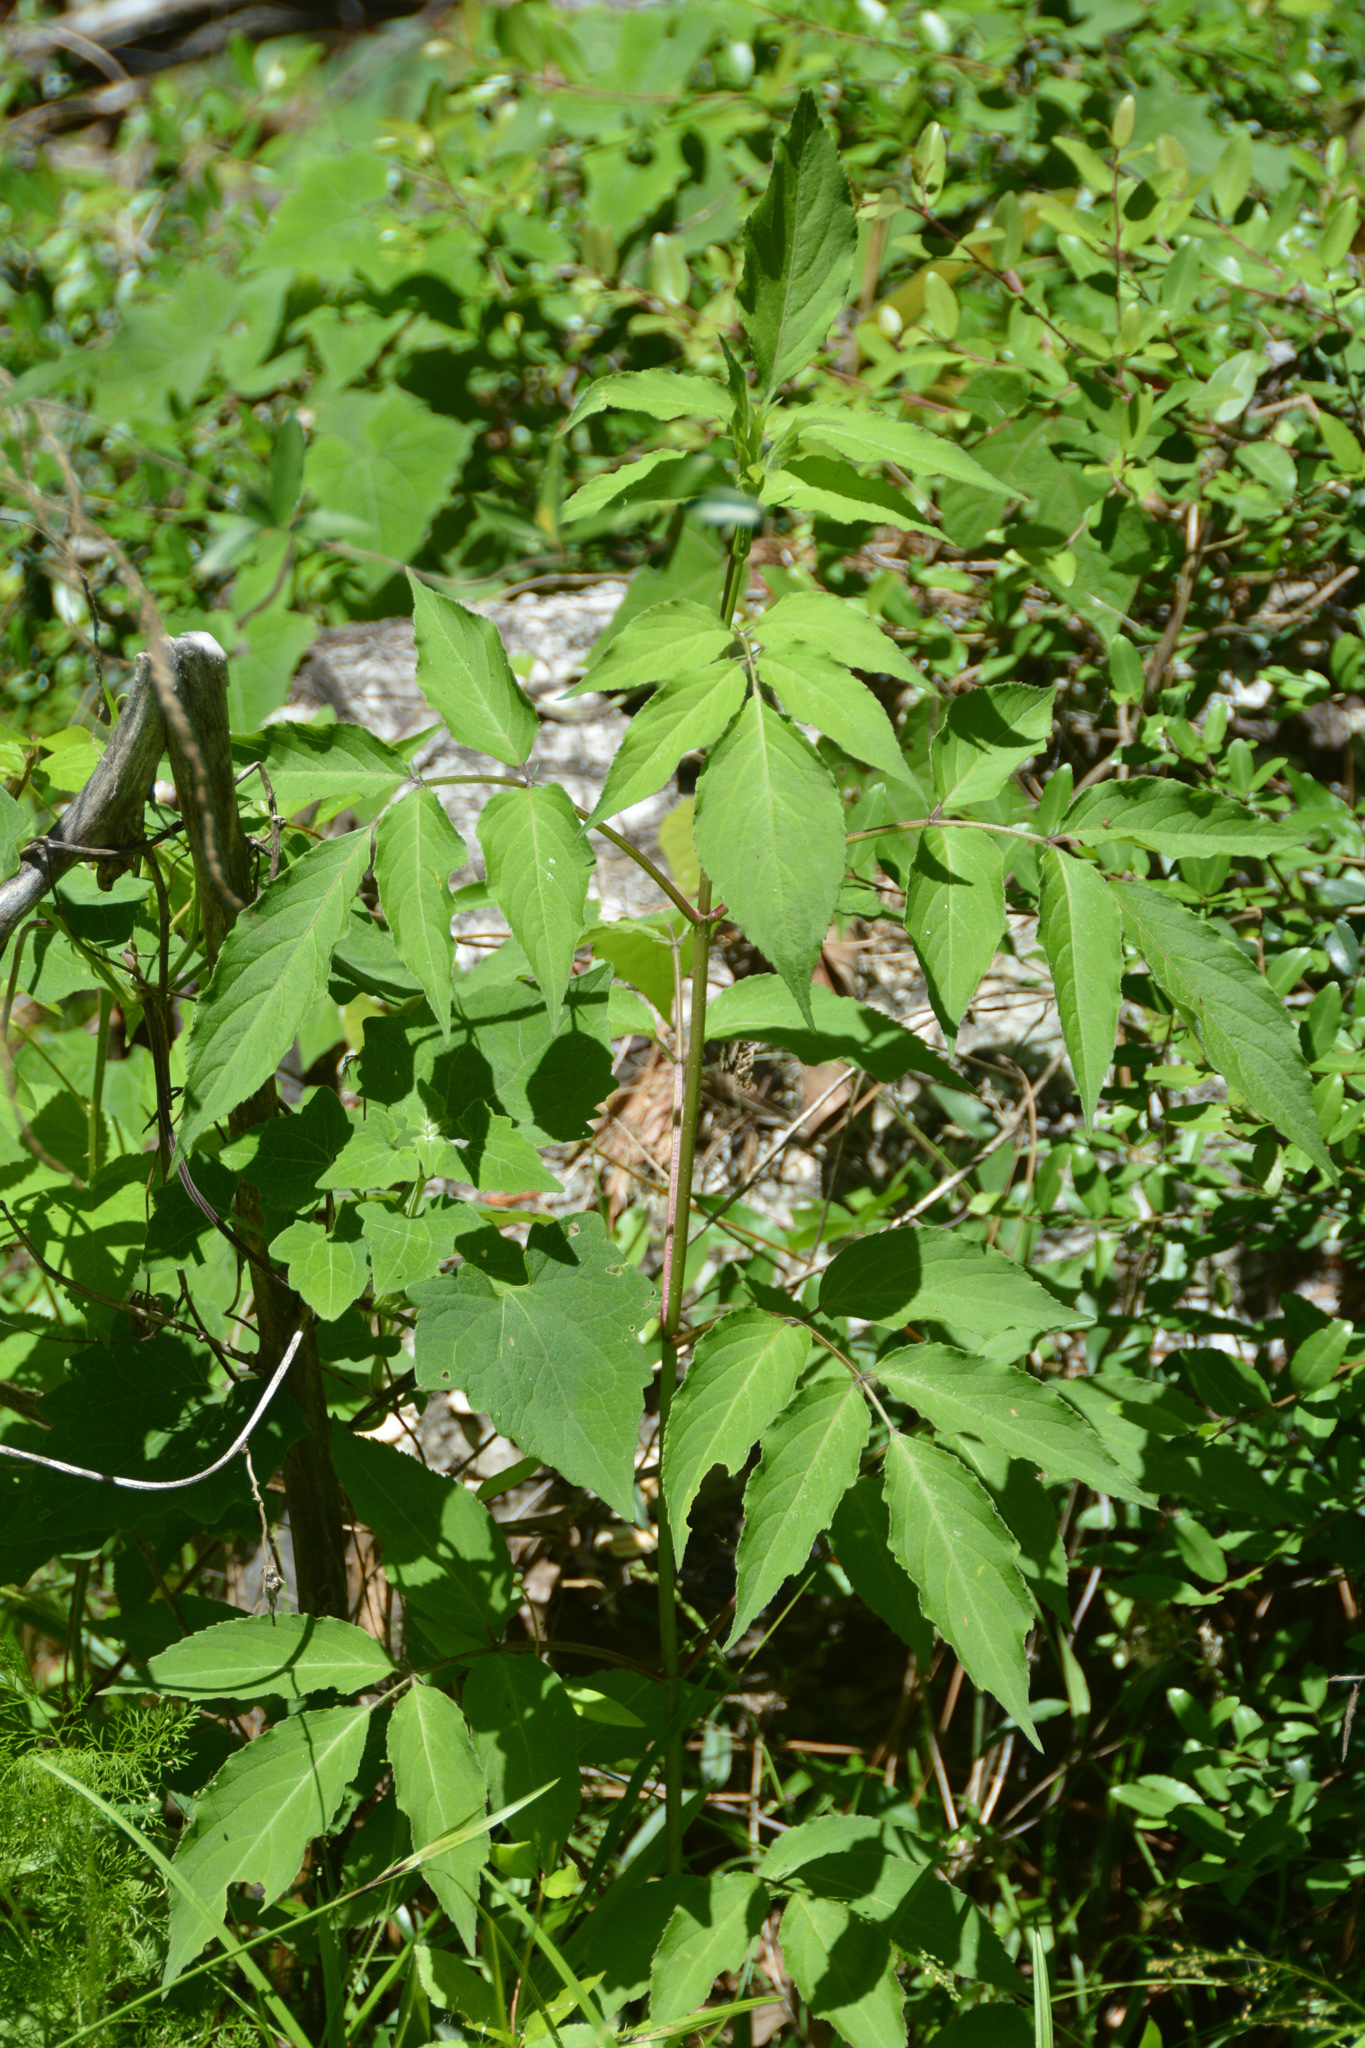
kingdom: Plantae
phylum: Tracheophyta
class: Magnoliopsida
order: Dipsacales
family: Viburnaceae
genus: Sambucus
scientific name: Sambucus canadensis
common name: American elder
